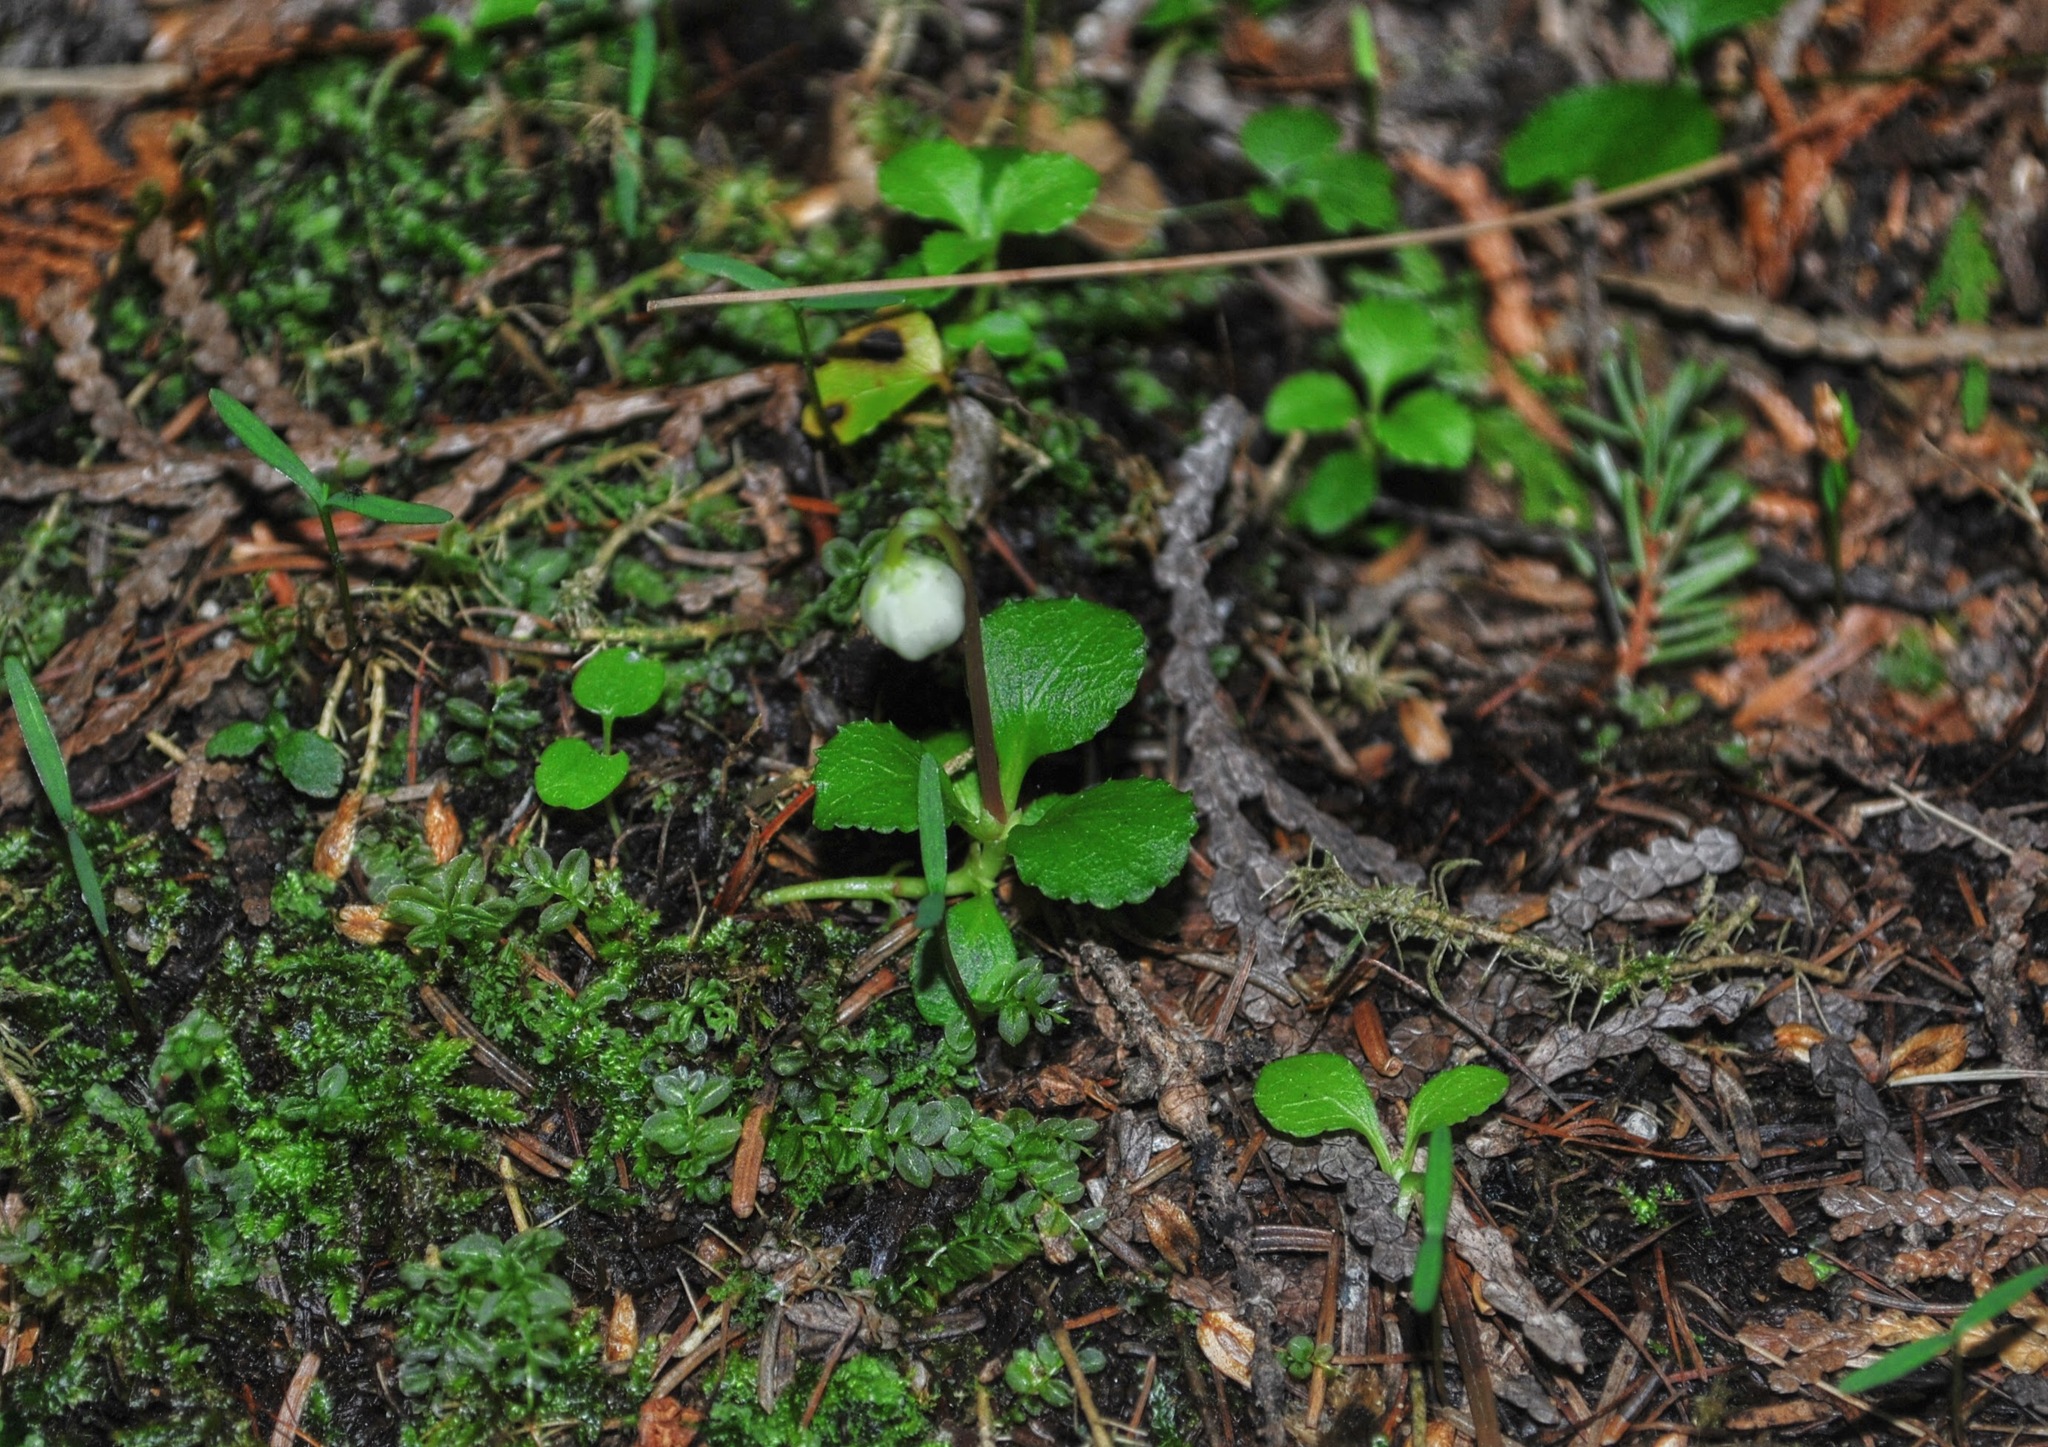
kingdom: Plantae
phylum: Tracheophyta
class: Magnoliopsida
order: Ericales
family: Ericaceae
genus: Moneses
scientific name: Moneses uniflora
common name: One-flowered wintergreen
